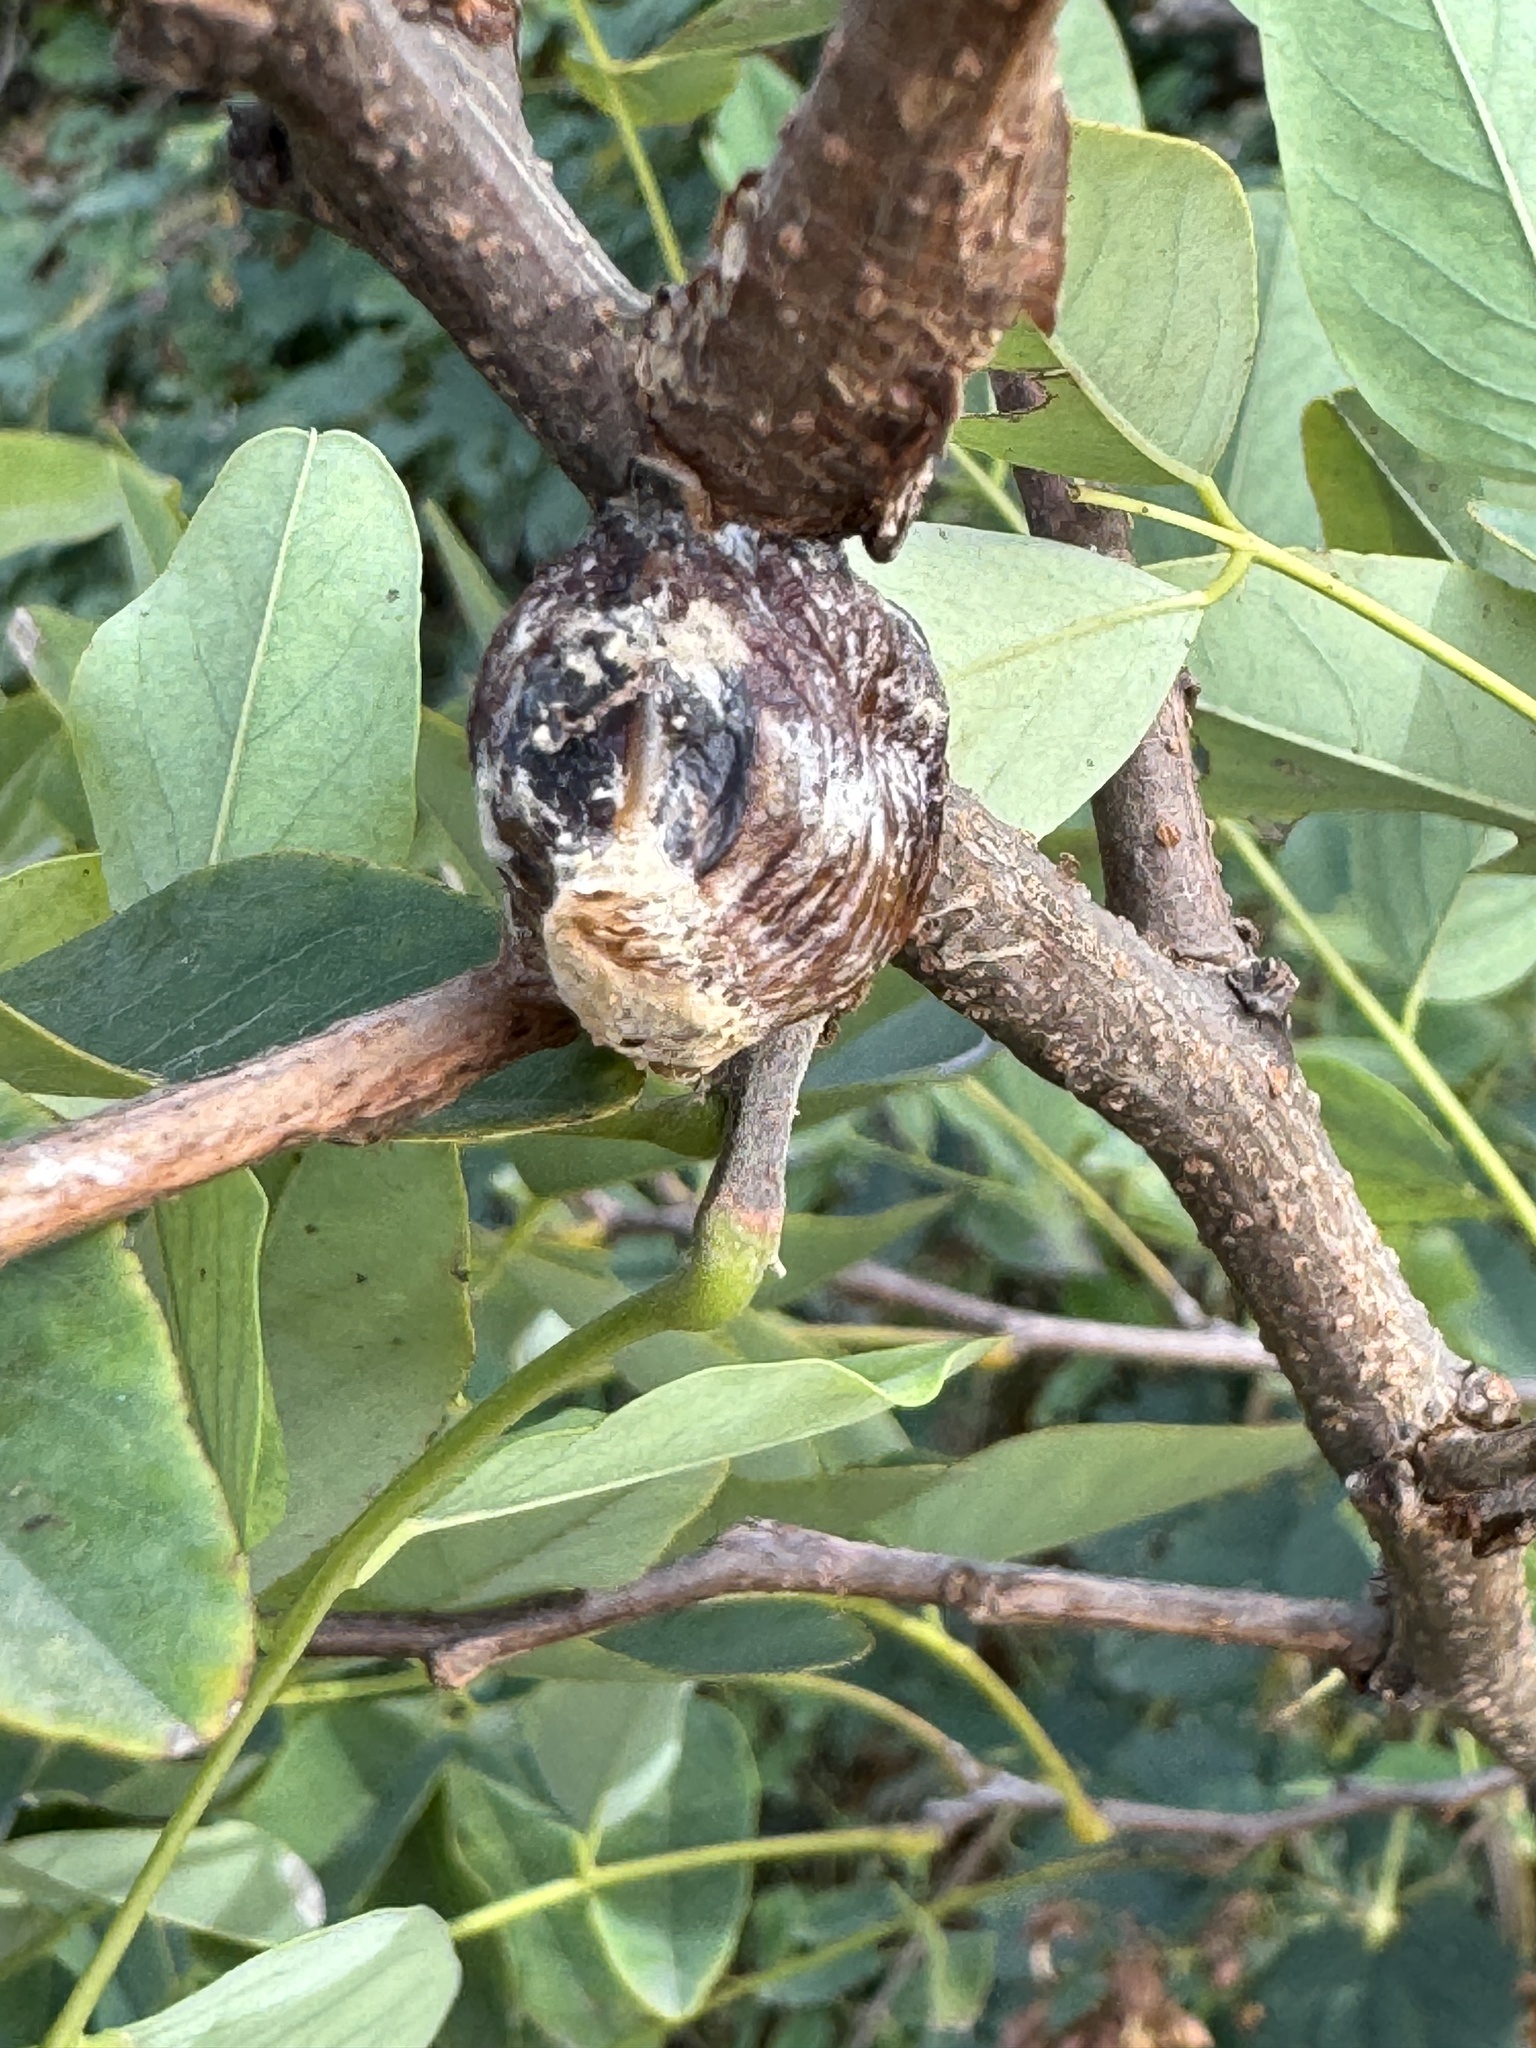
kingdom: Animalia
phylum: Arthropoda
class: Insecta
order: Mantodea
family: Mantidae
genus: Hierodula
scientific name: Hierodula transcaucasica
